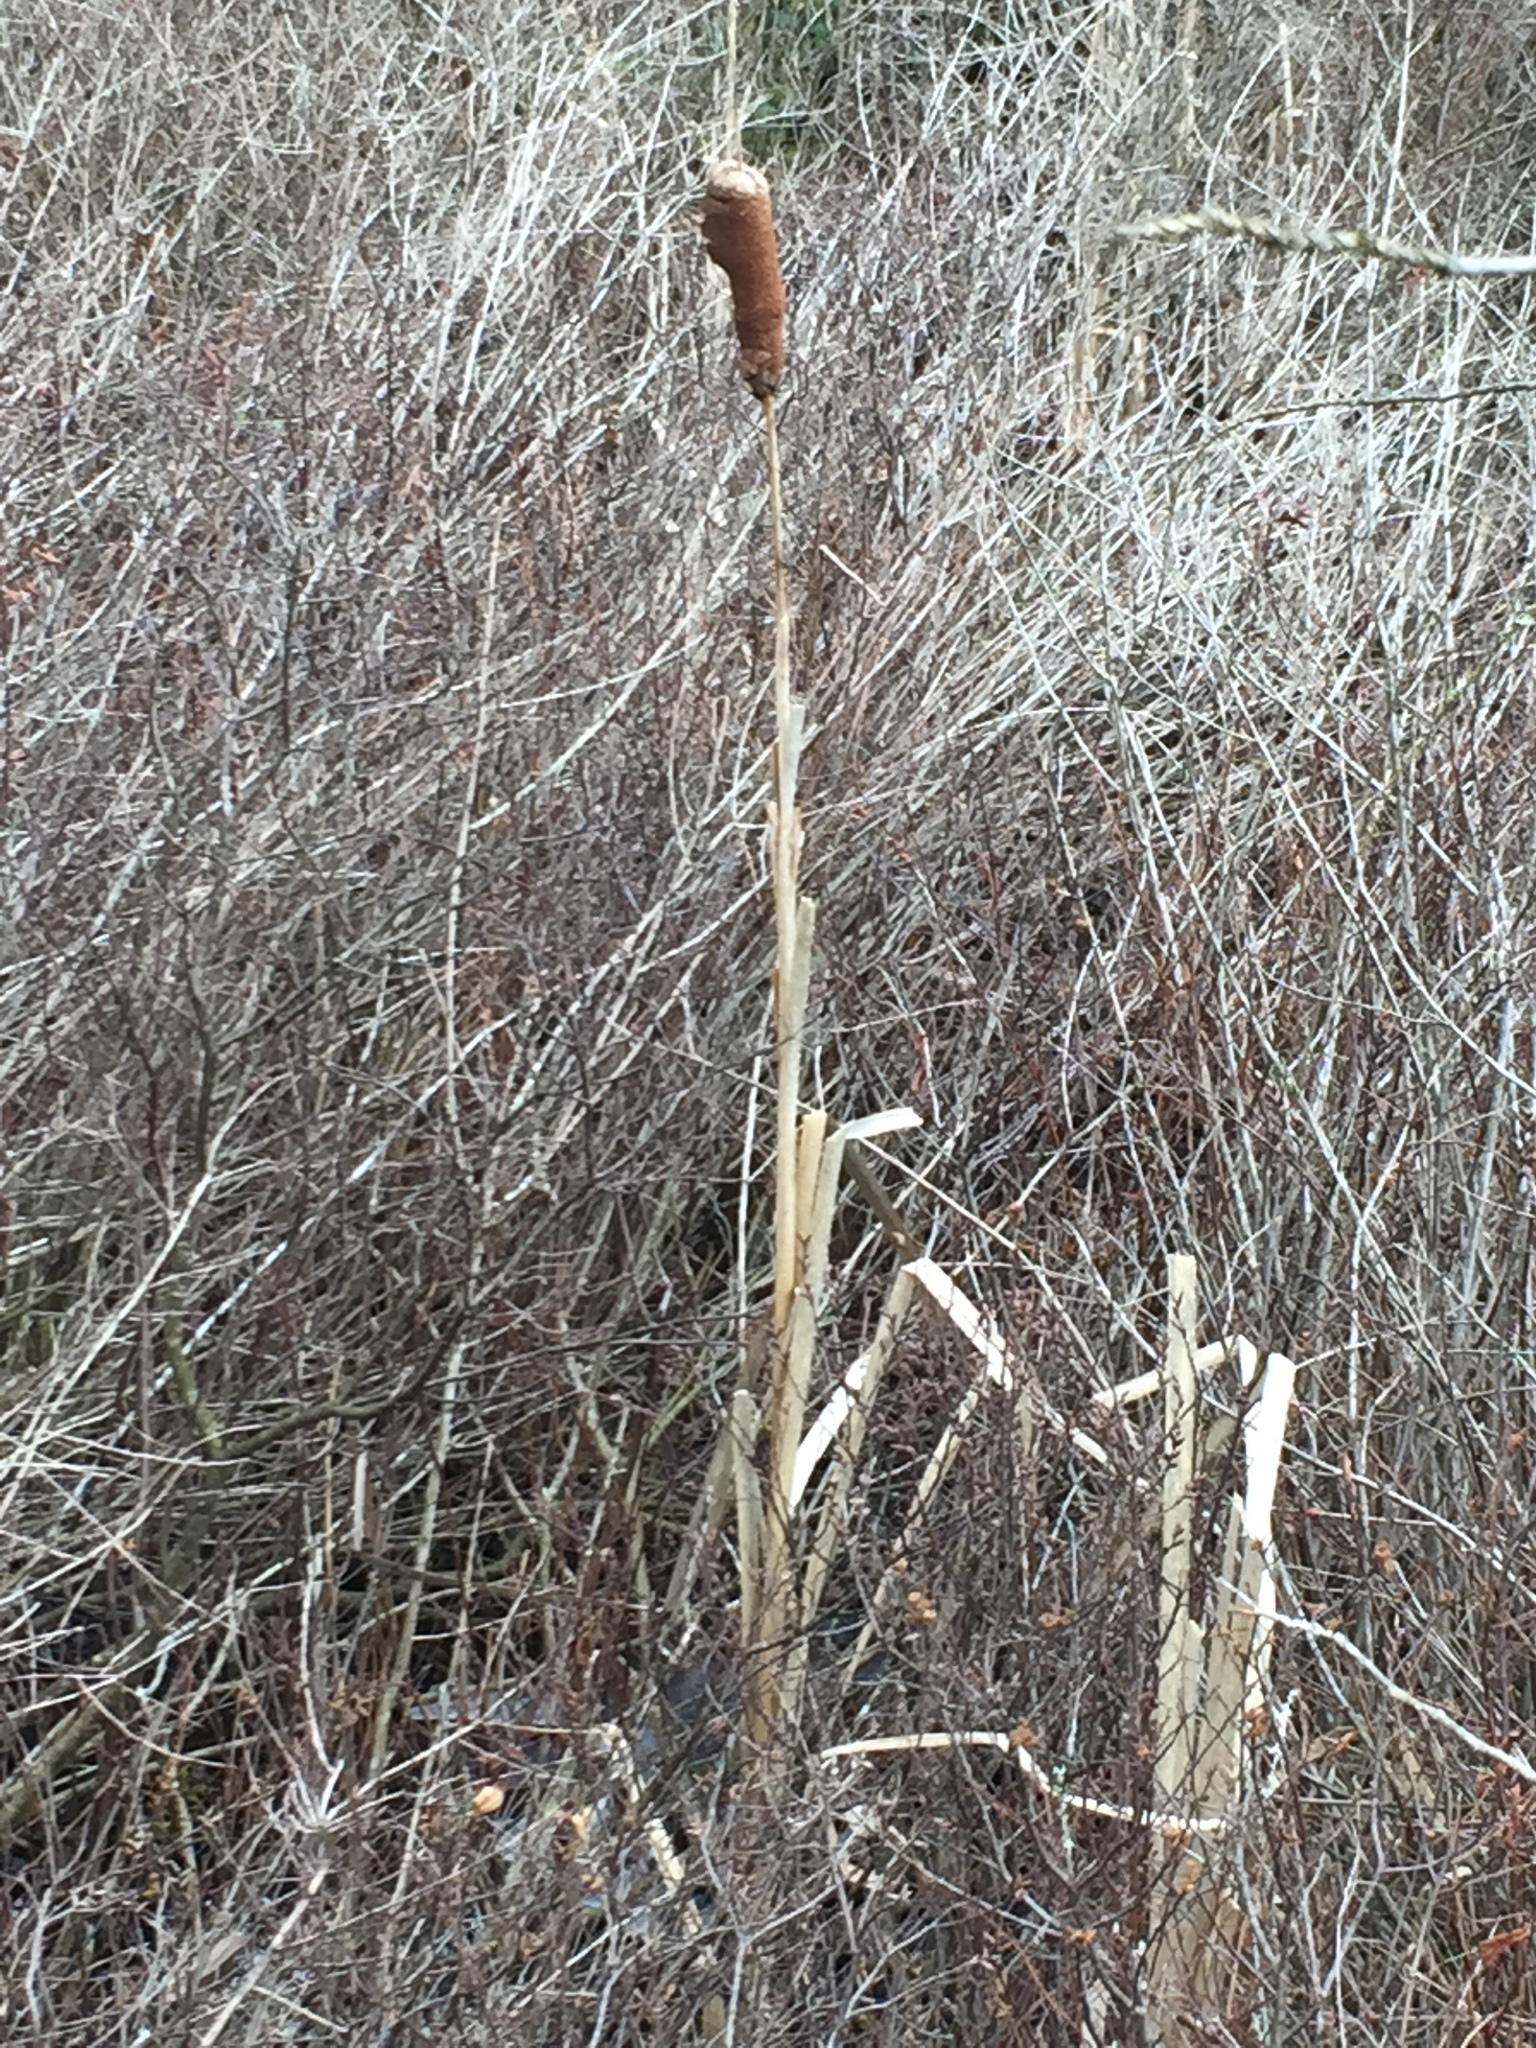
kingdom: Plantae
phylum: Tracheophyta
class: Liliopsida
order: Poales
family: Typhaceae
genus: Typha
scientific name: Typha latifolia
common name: Broadleaf cattail
